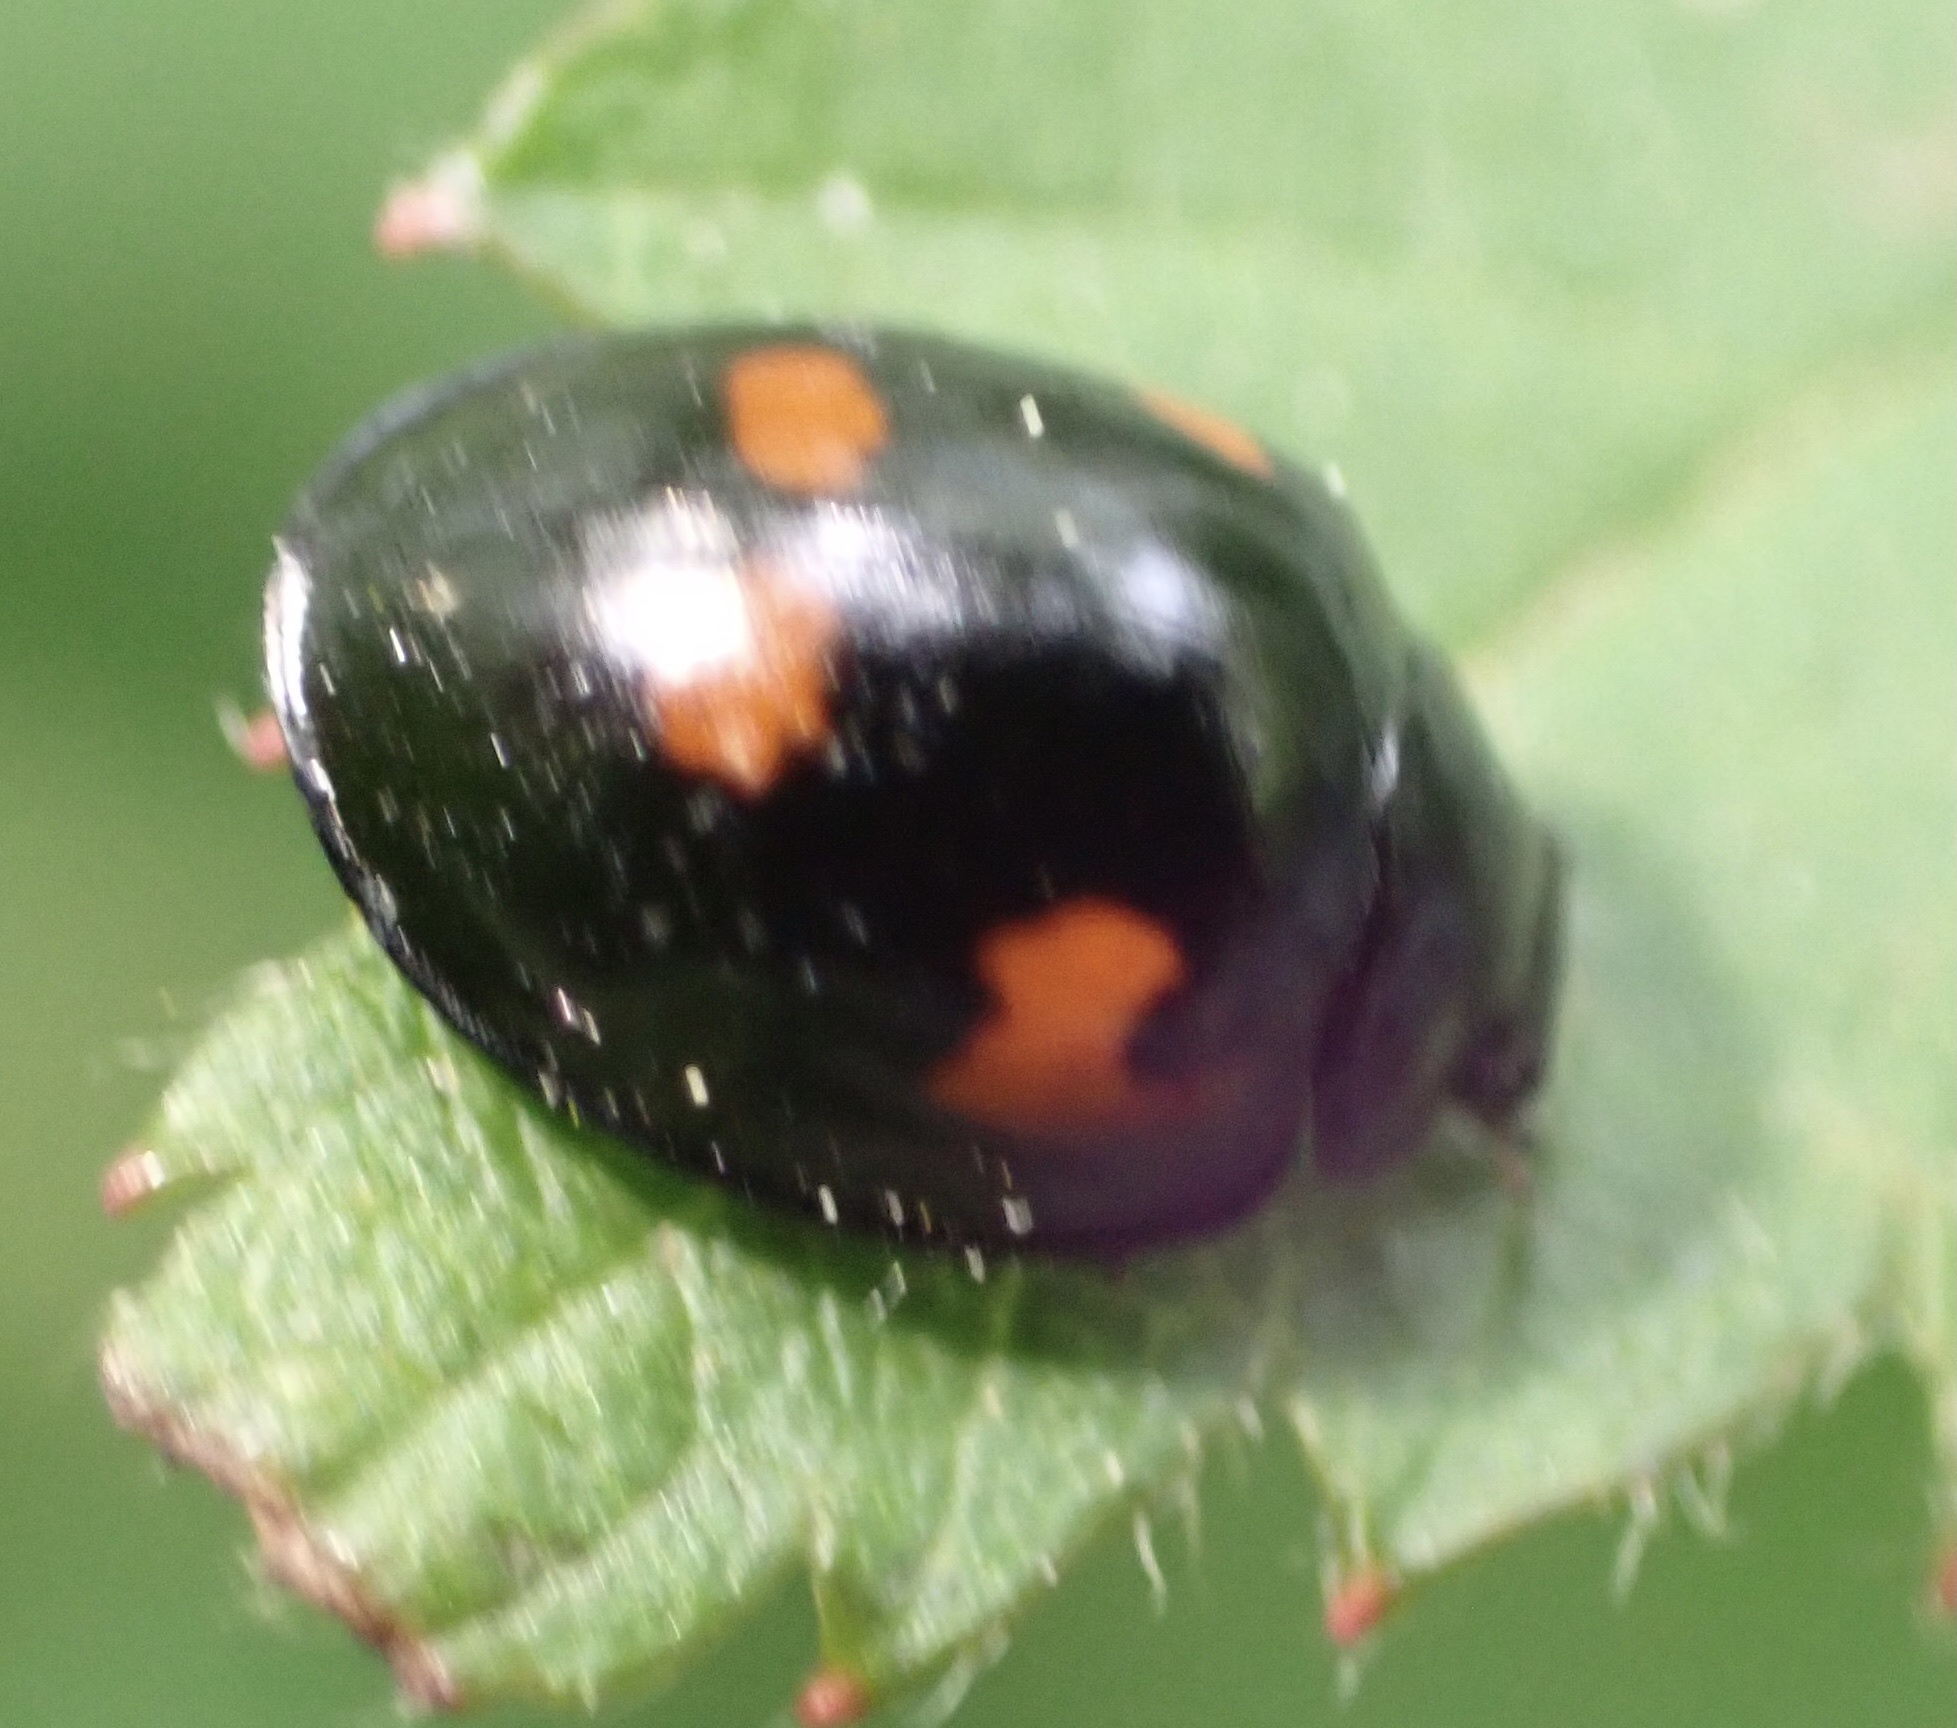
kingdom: Animalia
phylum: Arthropoda
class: Insecta
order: Coleoptera
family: Coccinellidae
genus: Brumus
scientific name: Brumus quadripustulatus
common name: Ladybird beetle
